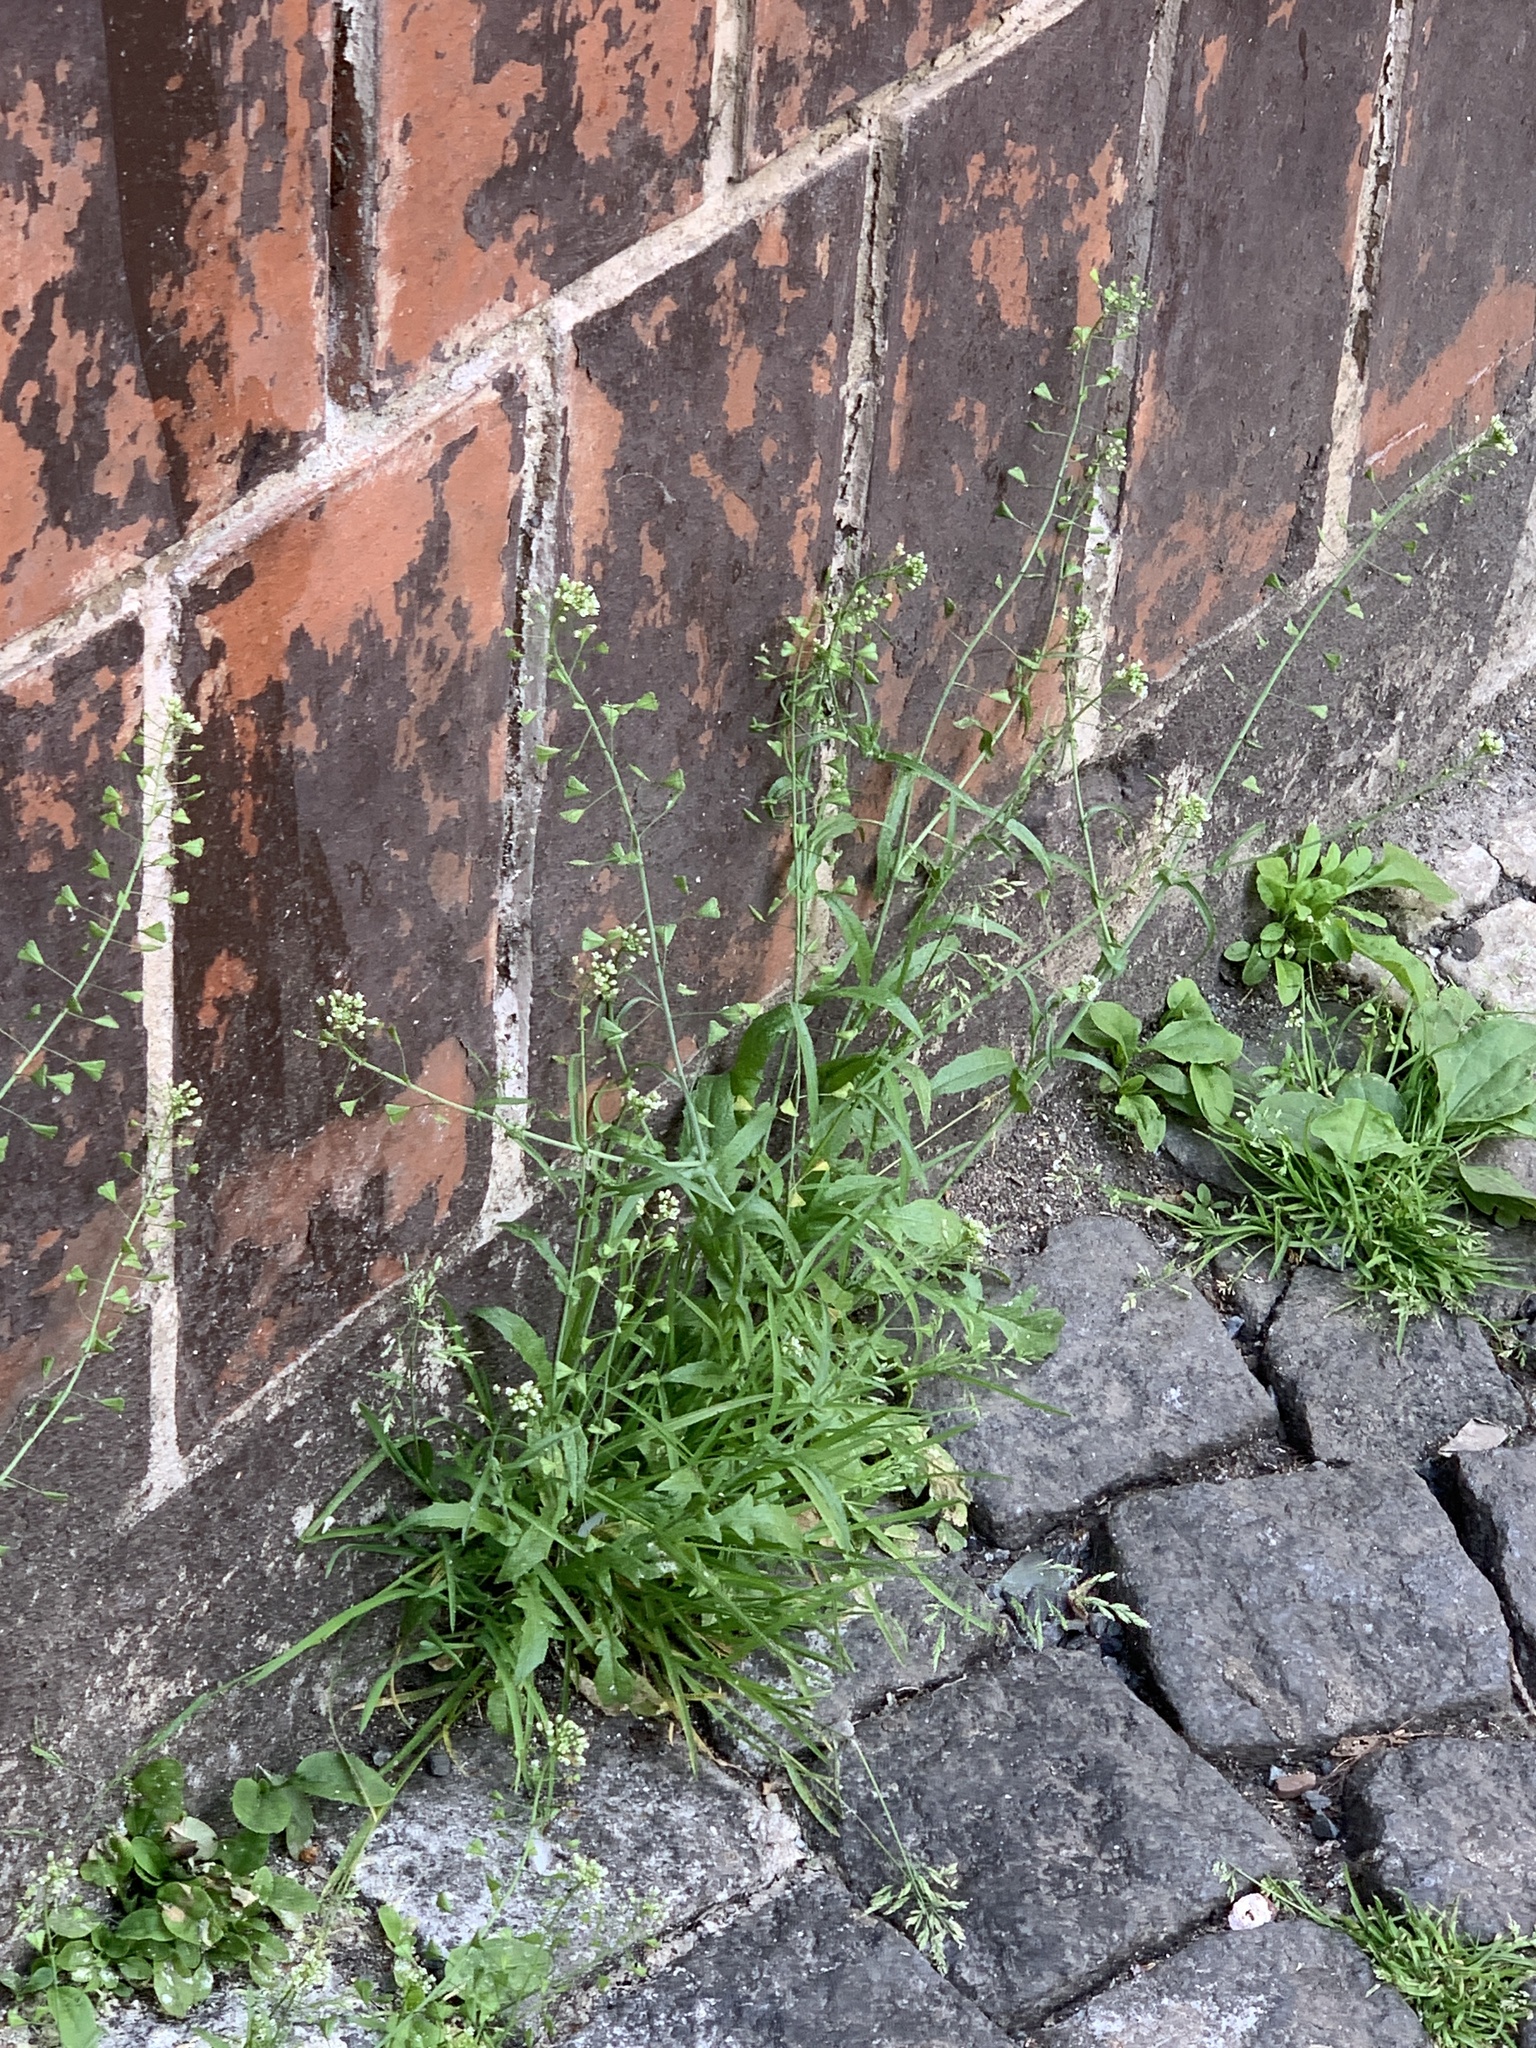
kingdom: Plantae
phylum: Tracheophyta
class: Magnoliopsida
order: Brassicales
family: Brassicaceae
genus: Capsella
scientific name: Capsella bursa-pastoris
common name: Shepherd's purse
